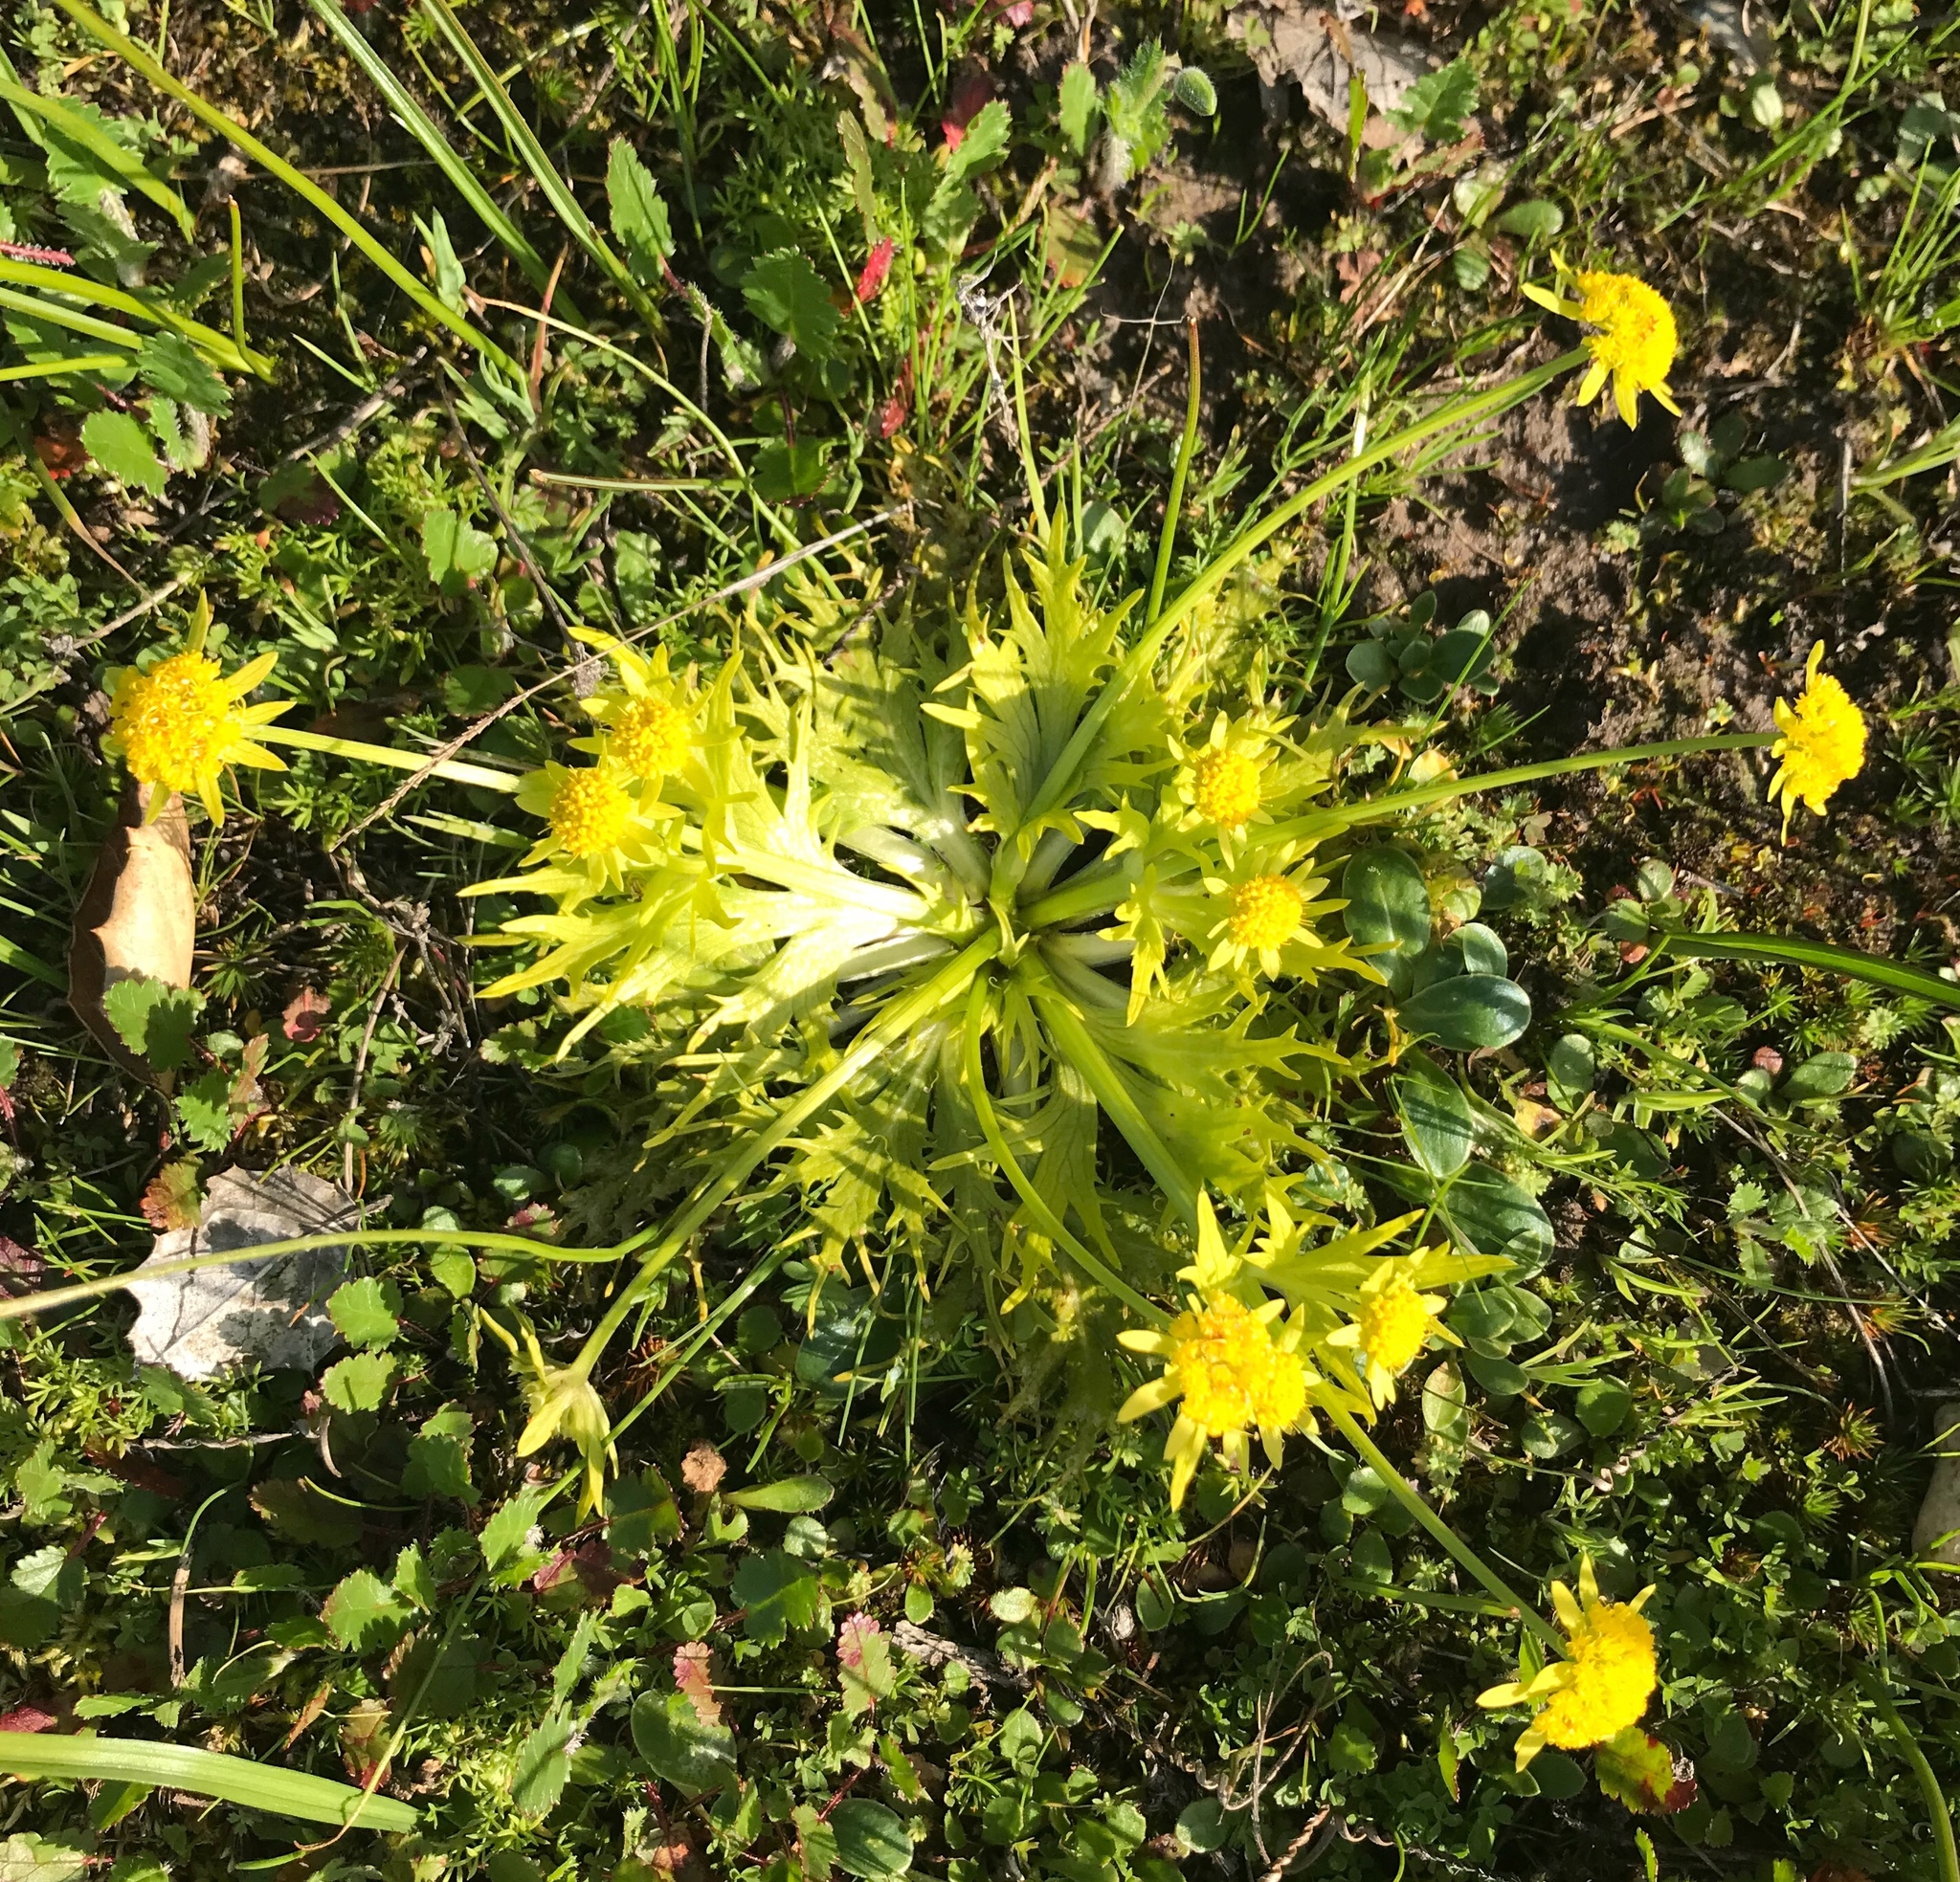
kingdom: Plantae
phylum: Tracheophyta
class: Magnoliopsida
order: Apiales
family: Apiaceae
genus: Sanicula
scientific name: Sanicula arctopoides
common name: Footsteps-of-spring
